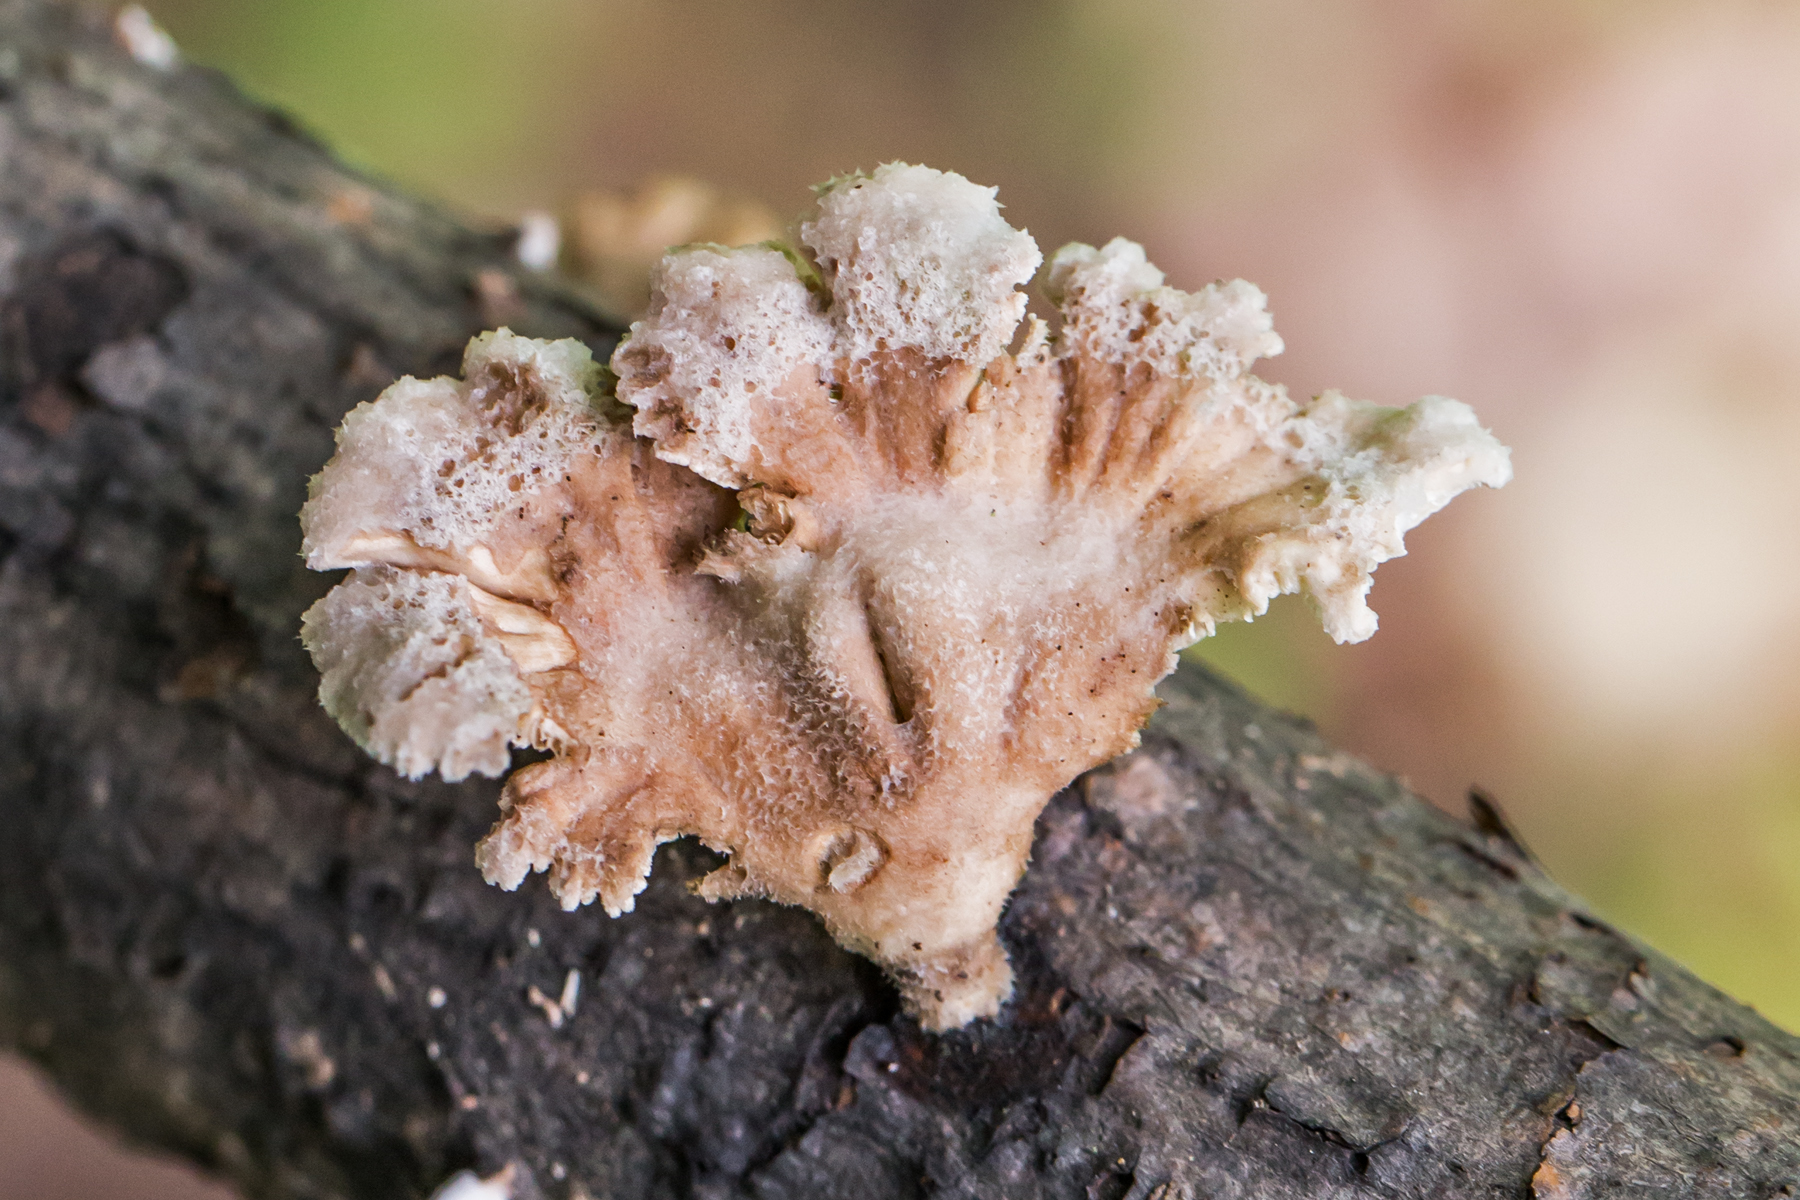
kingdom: Fungi
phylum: Basidiomycota
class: Agaricomycetes
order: Agaricales
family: Schizophyllaceae
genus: Schizophyllum
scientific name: Schizophyllum commune
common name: Common porecrust
